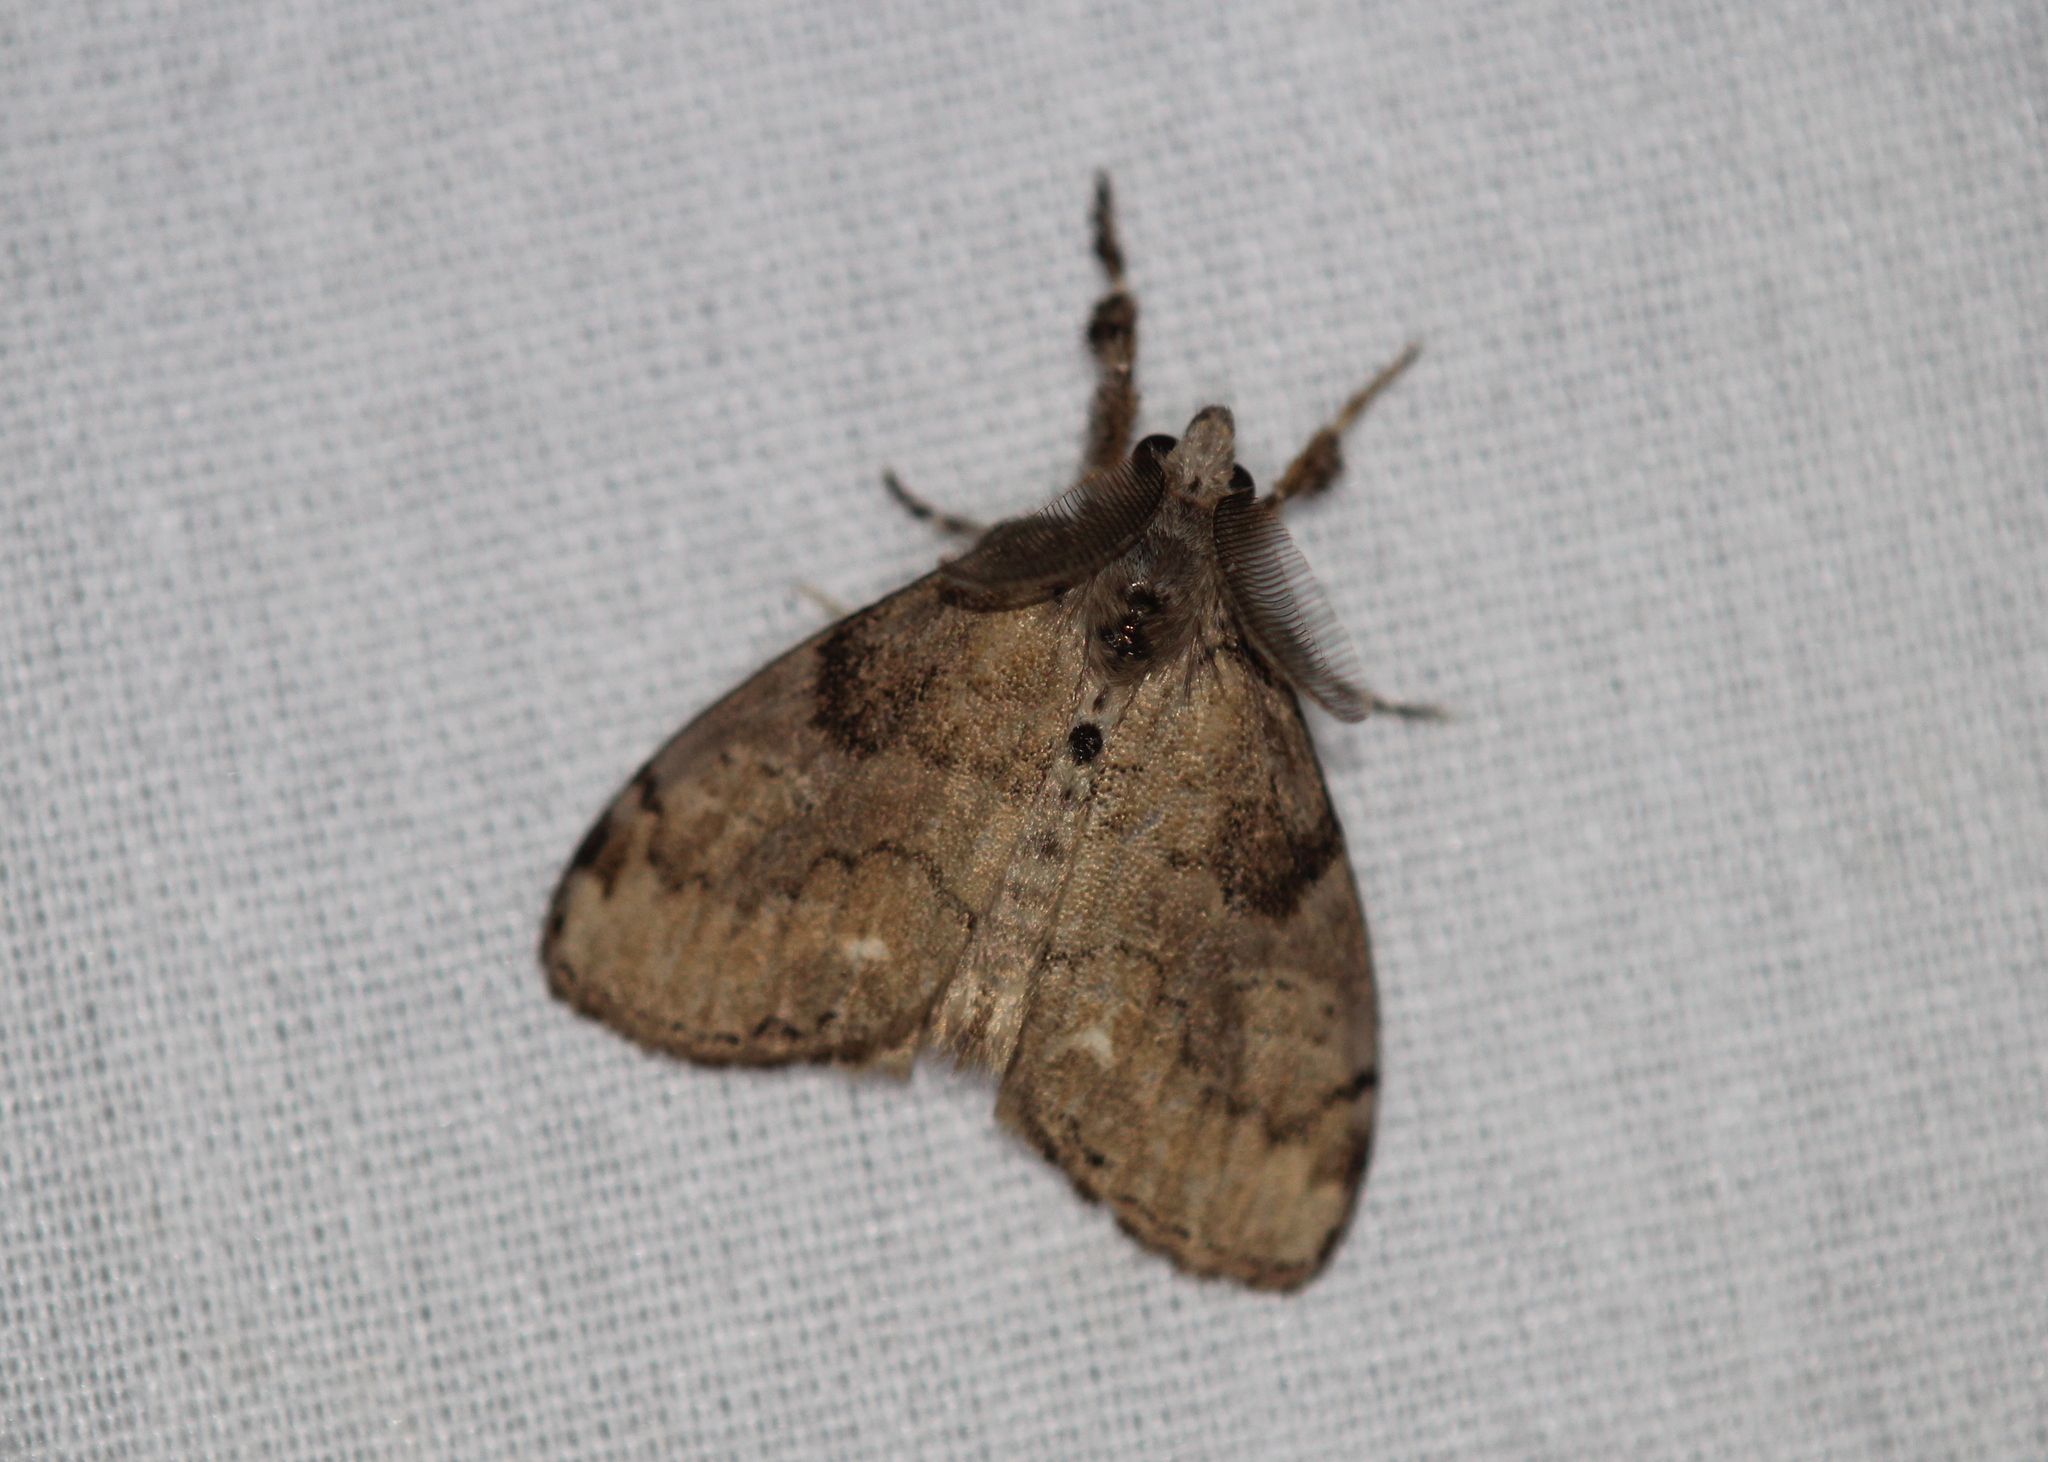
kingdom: Animalia
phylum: Arthropoda
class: Insecta
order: Lepidoptera
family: Erebidae
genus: Orgyia
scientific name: Orgyia leucostigma
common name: White-marked tussock moth
